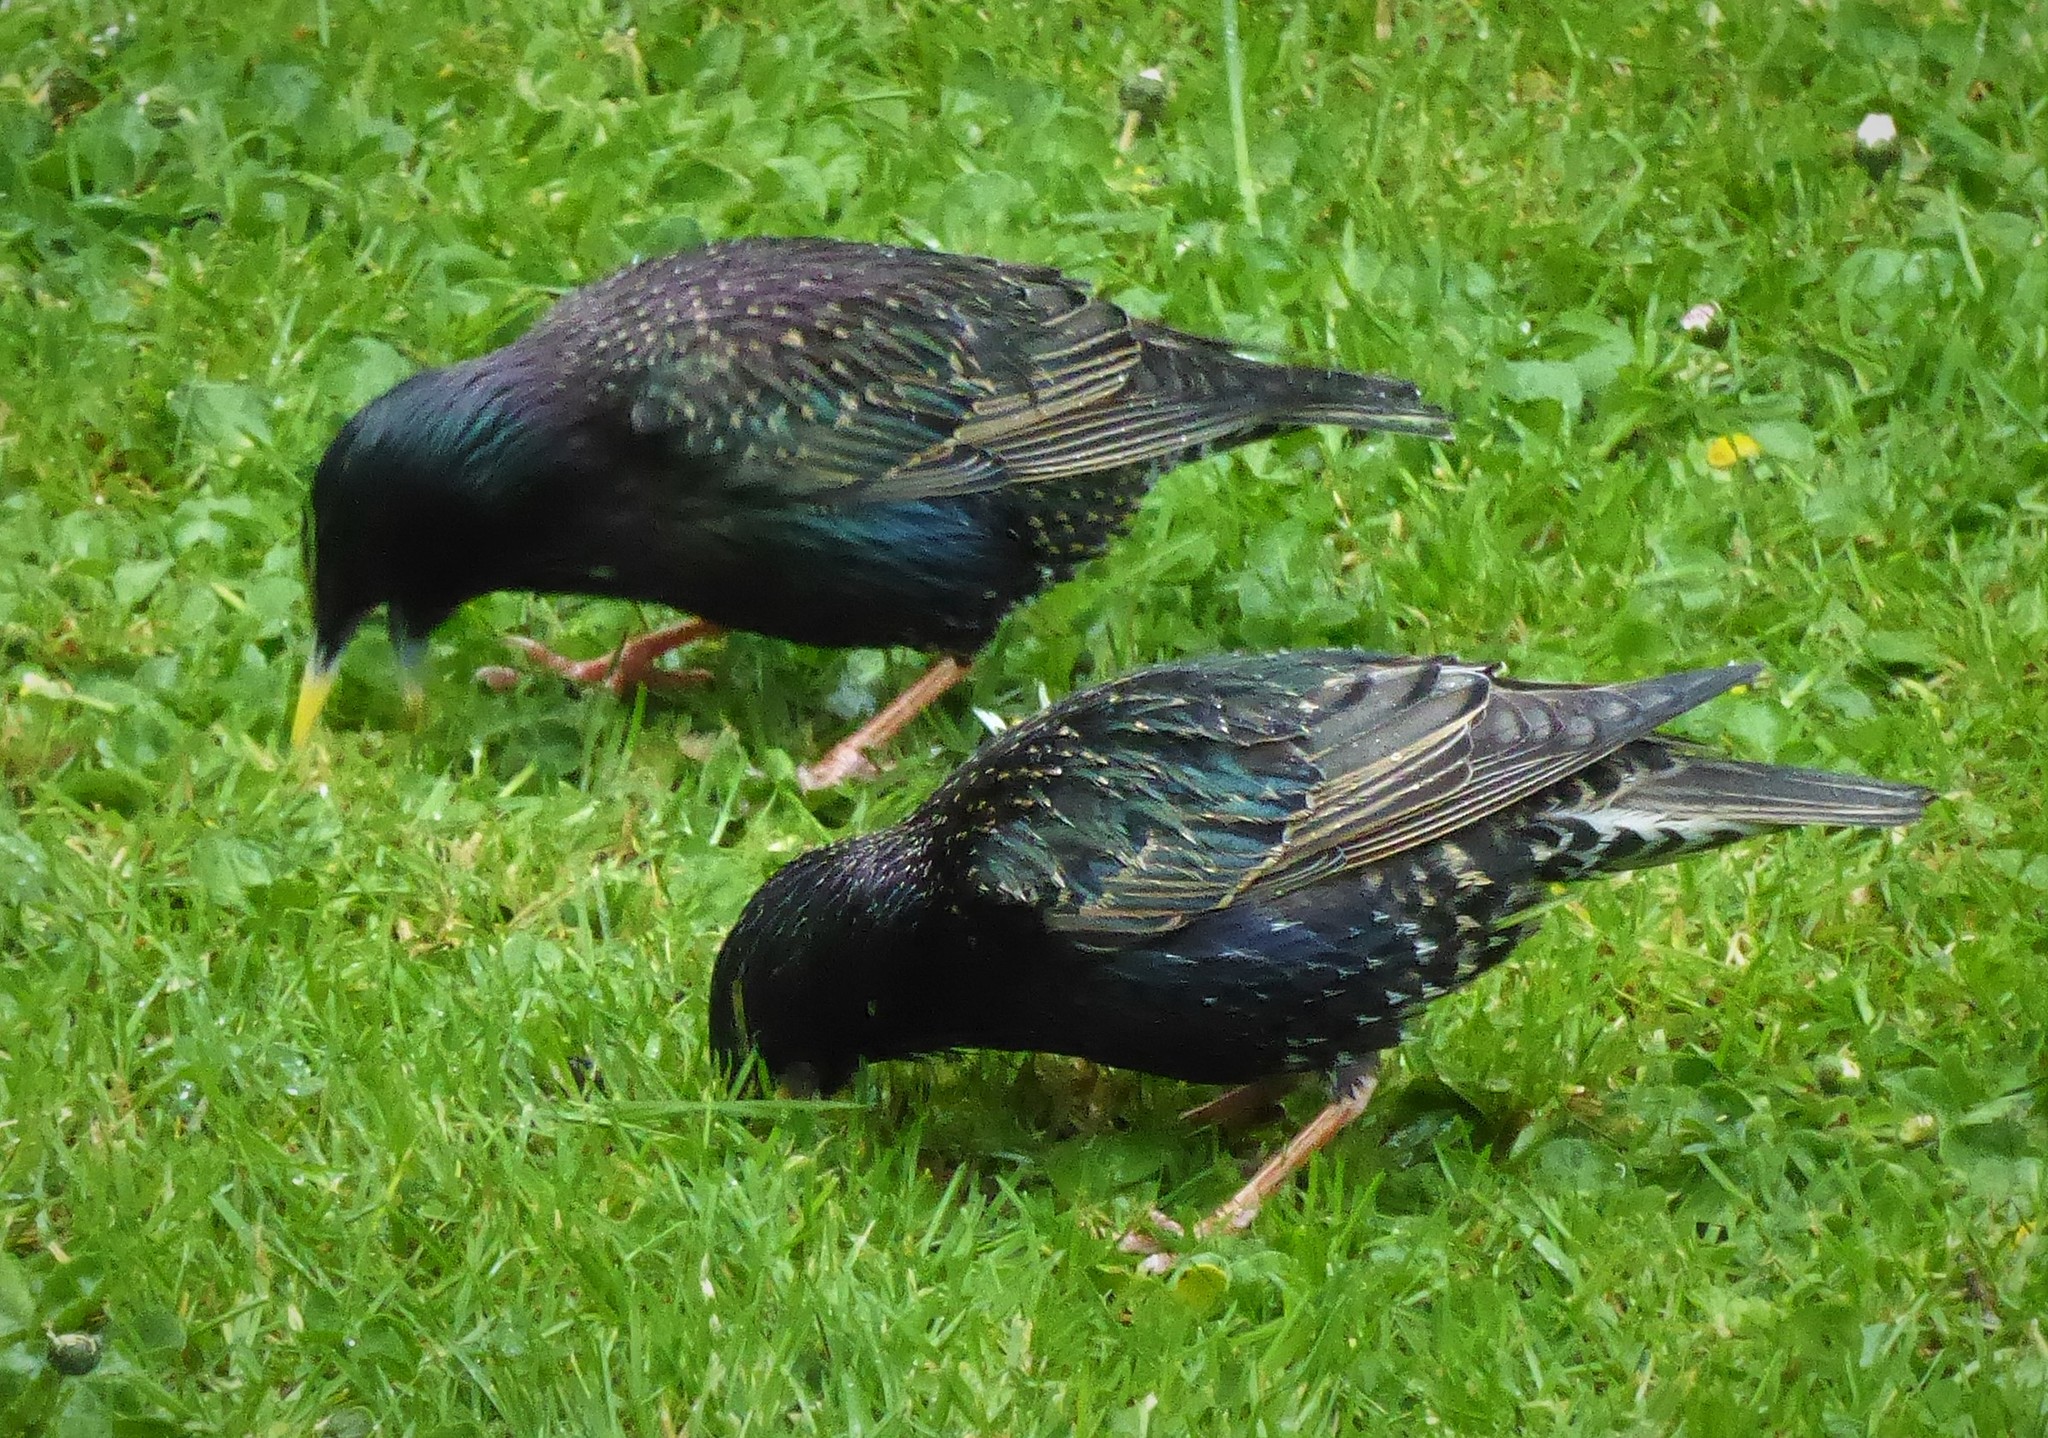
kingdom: Animalia
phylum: Chordata
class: Aves
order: Passeriformes
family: Sturnidae
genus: Sturnus
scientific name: Sturnus vulgaris
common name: Common starling
